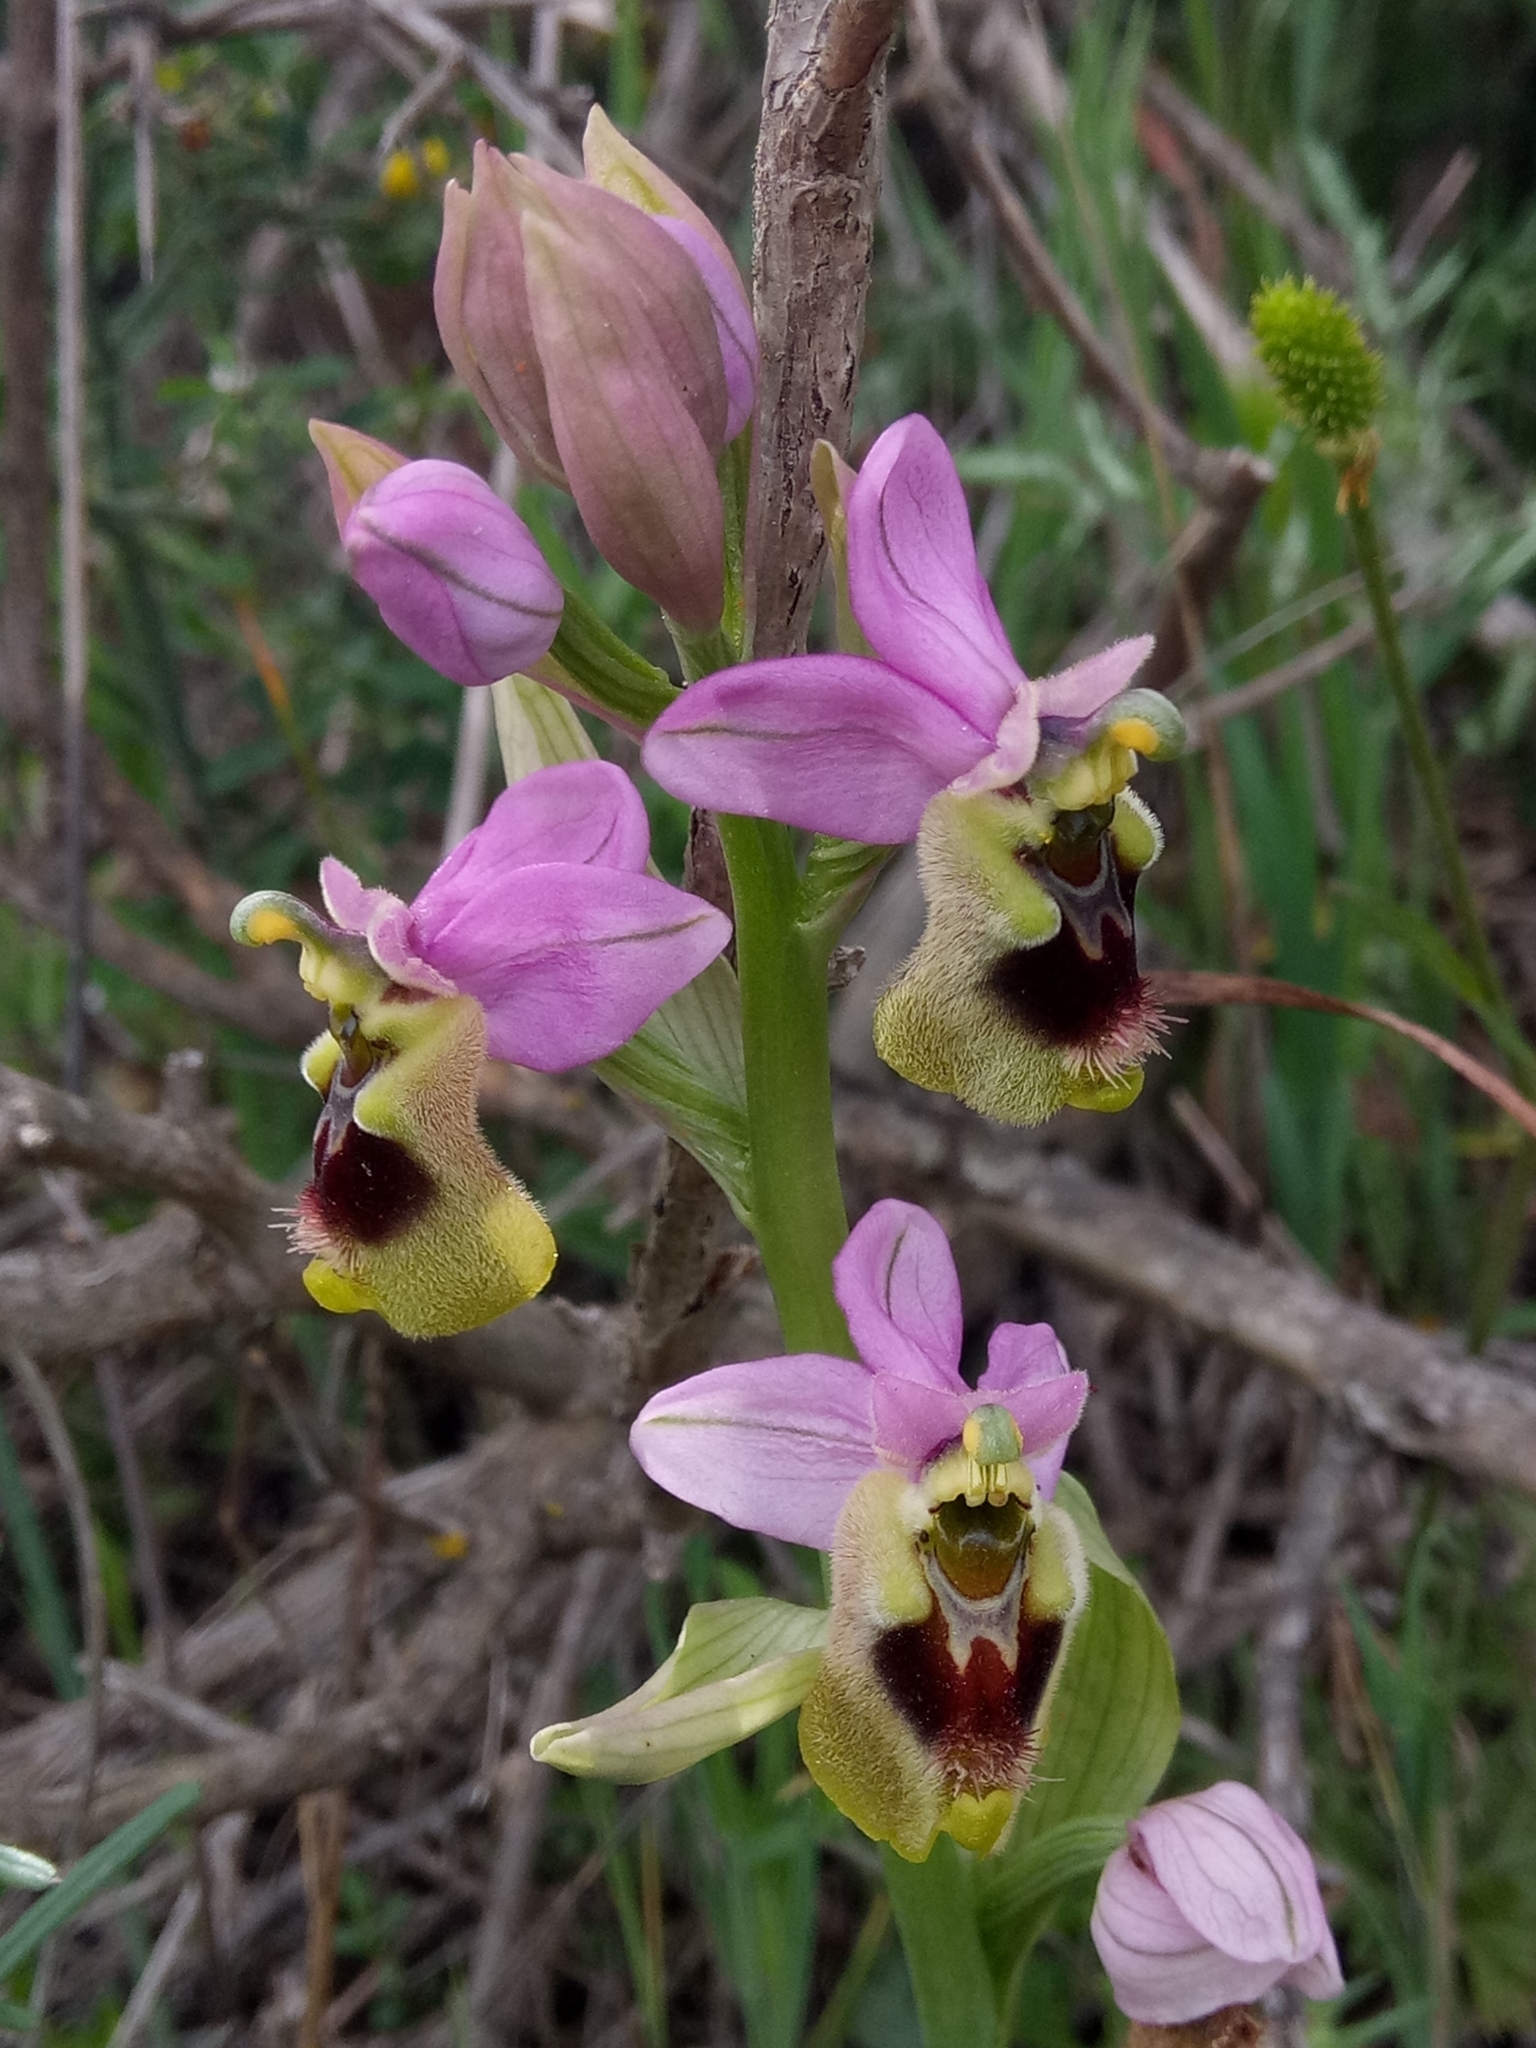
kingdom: Plantae
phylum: Tracheophyta
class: Liliopsida
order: Asparagales
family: Orchidaceae
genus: Ophrys
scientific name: Ophrys tenthredinifera
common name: Sawfly orchid
